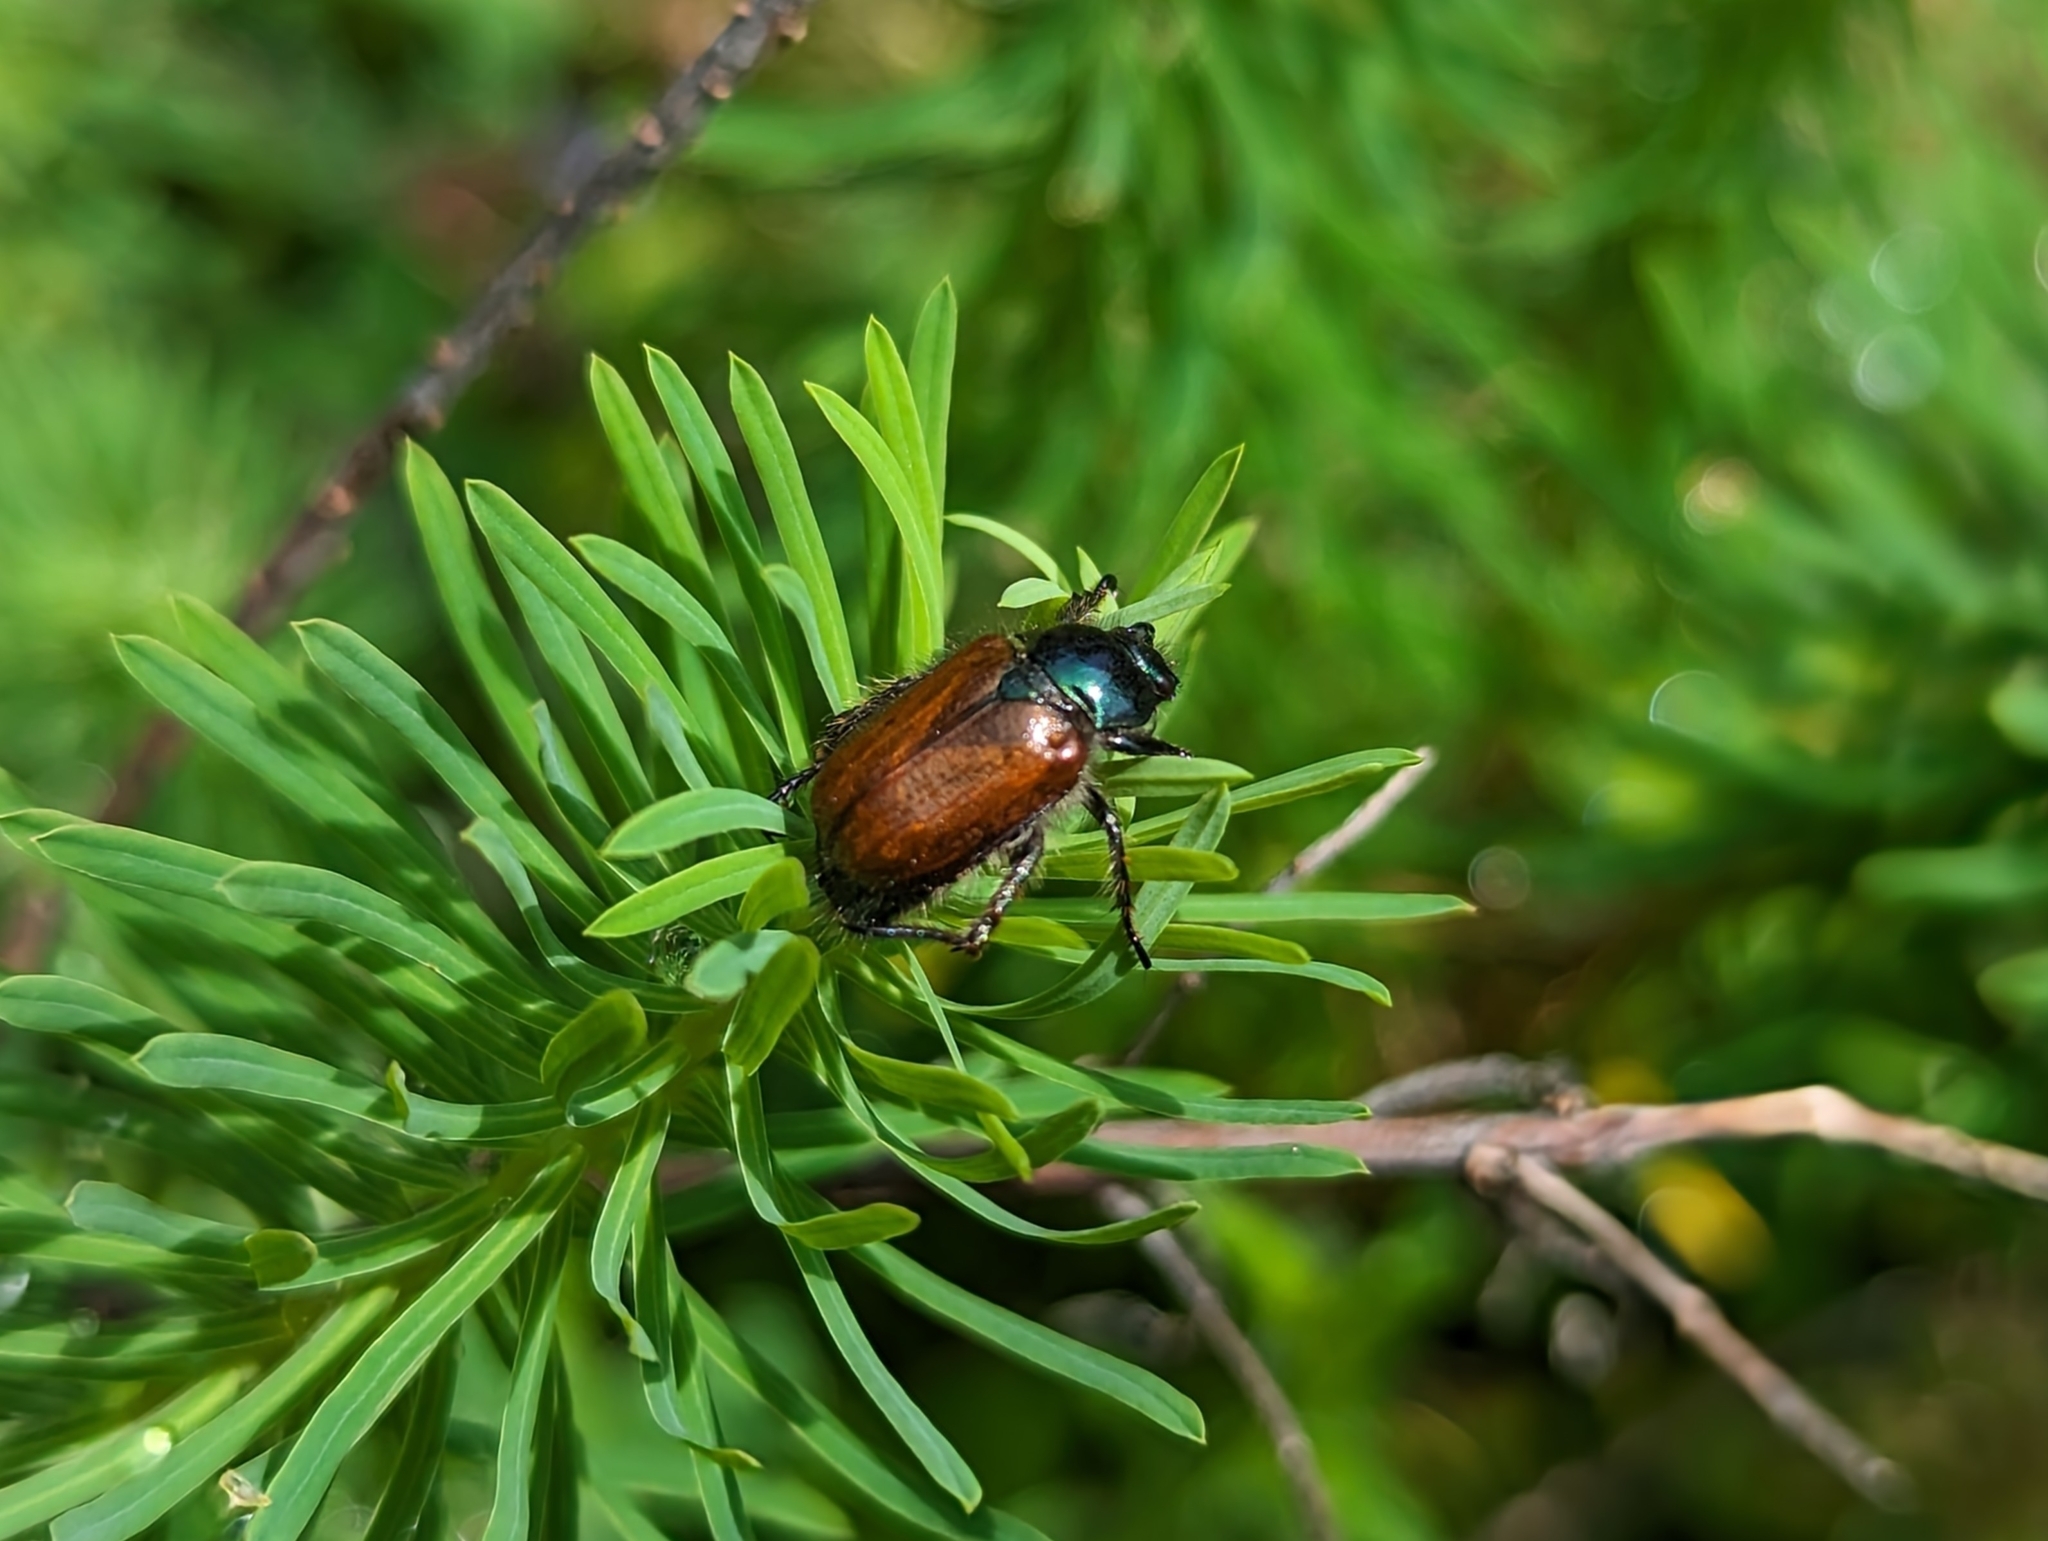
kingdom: Animalia
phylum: Arthropoda
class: Insecta
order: Coleoptera
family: Scarabaeidae
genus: Phyllopertha
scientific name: Phyllopertha horticola
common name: Garden chafer
